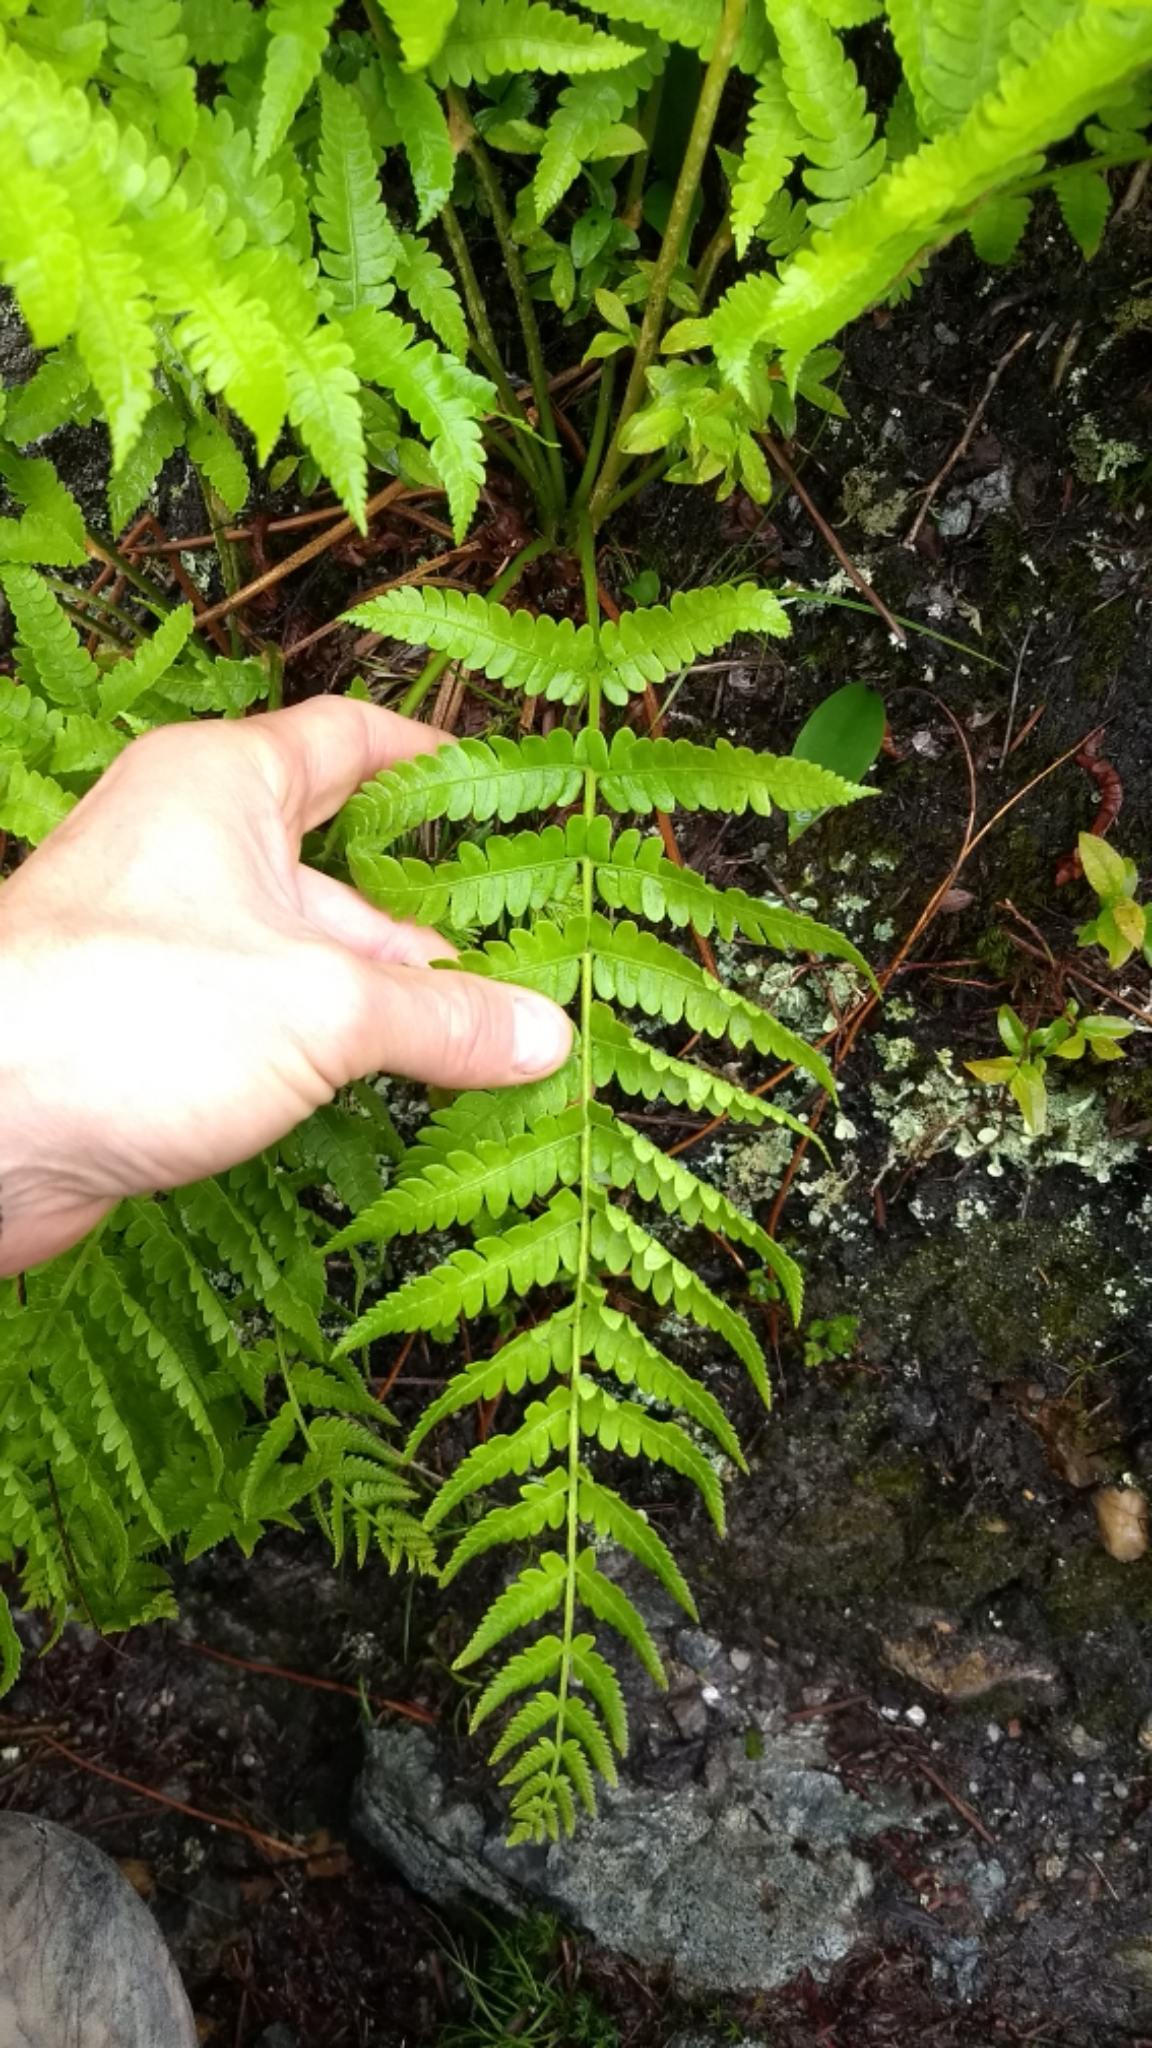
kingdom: Plantae
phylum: Tracheophyta
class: Polypodiopsida
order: Osmundales
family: Osmundaceae
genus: Osmundastrum
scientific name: Osmundastrum cinnamomeum
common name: Cinnamon fern
